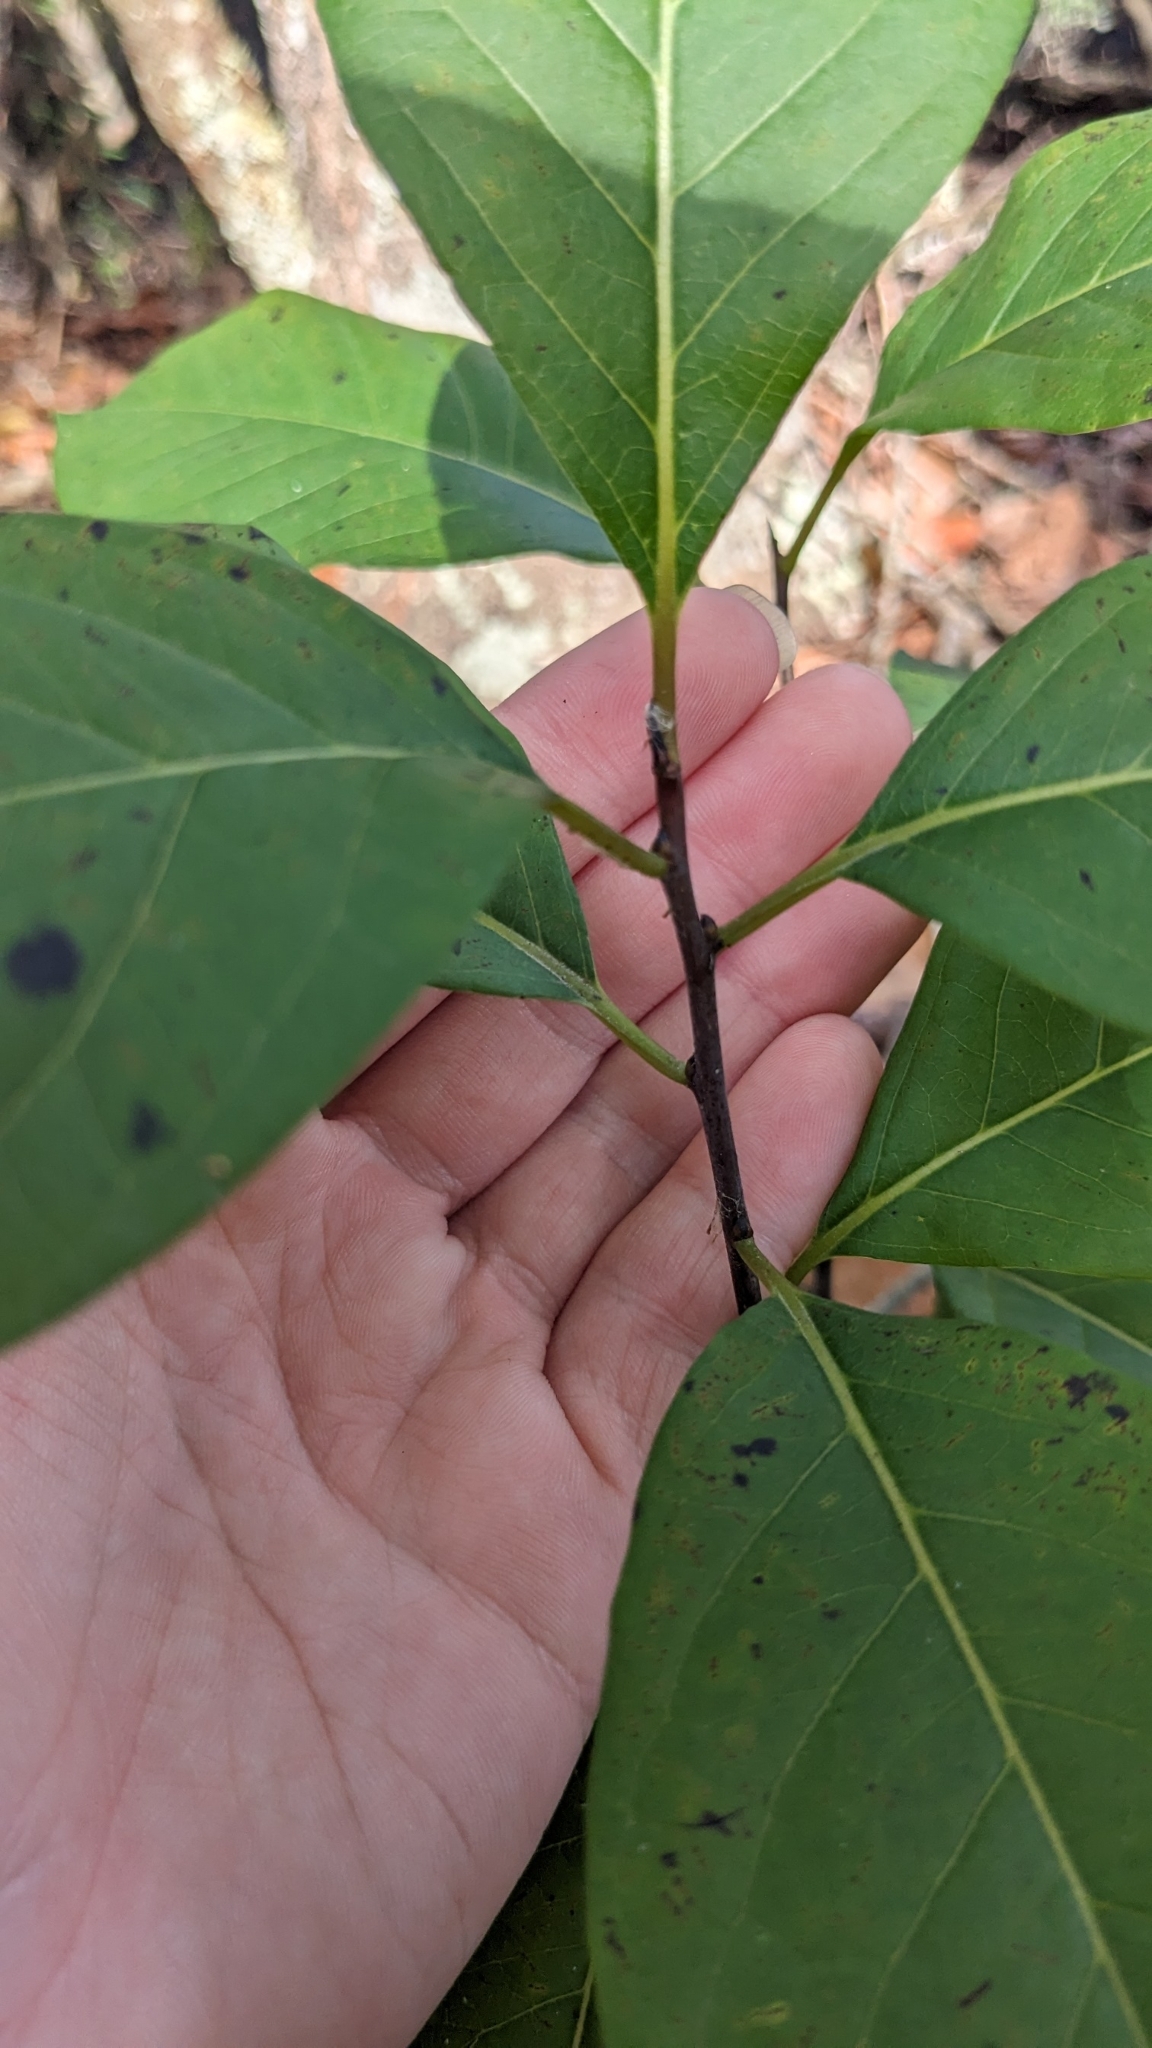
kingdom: Plantae
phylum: Tracheophyta
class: Magnoliopsida
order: Ericales
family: Ebenaceae
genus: Diospyros
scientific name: Diospyros virginiana
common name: Persimmon
